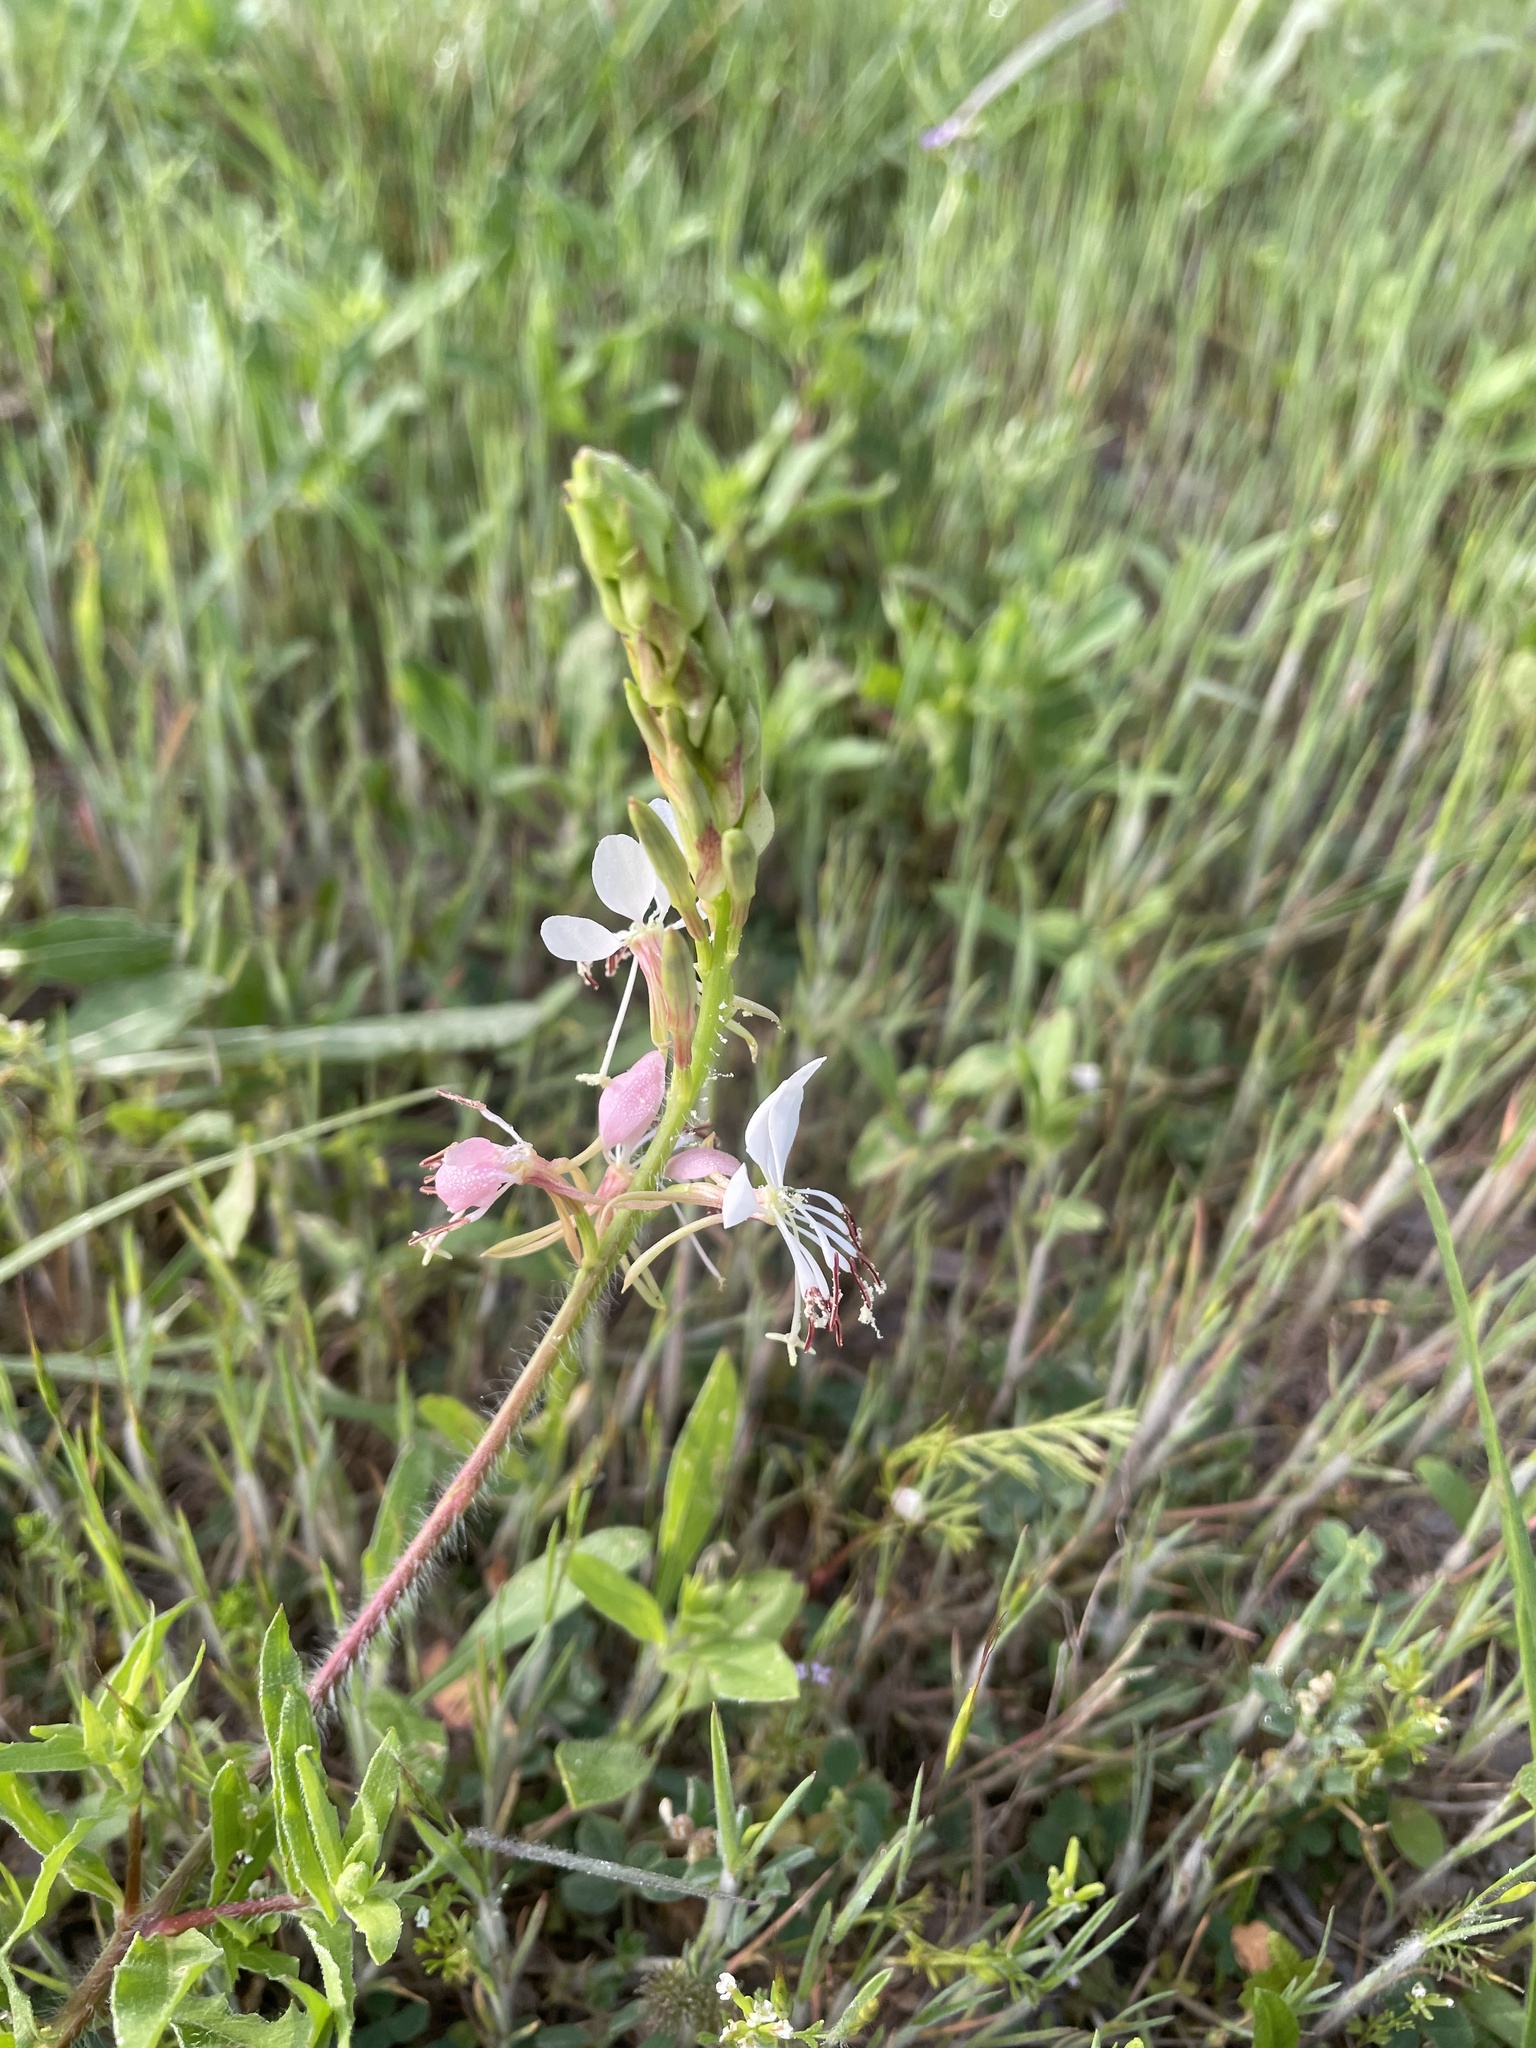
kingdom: Plantae
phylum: Tracheophyta
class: Magnoliopsida
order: Myrtales
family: Onagraceae
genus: Oenothera
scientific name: Oenothera suffulta
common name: Kisses
